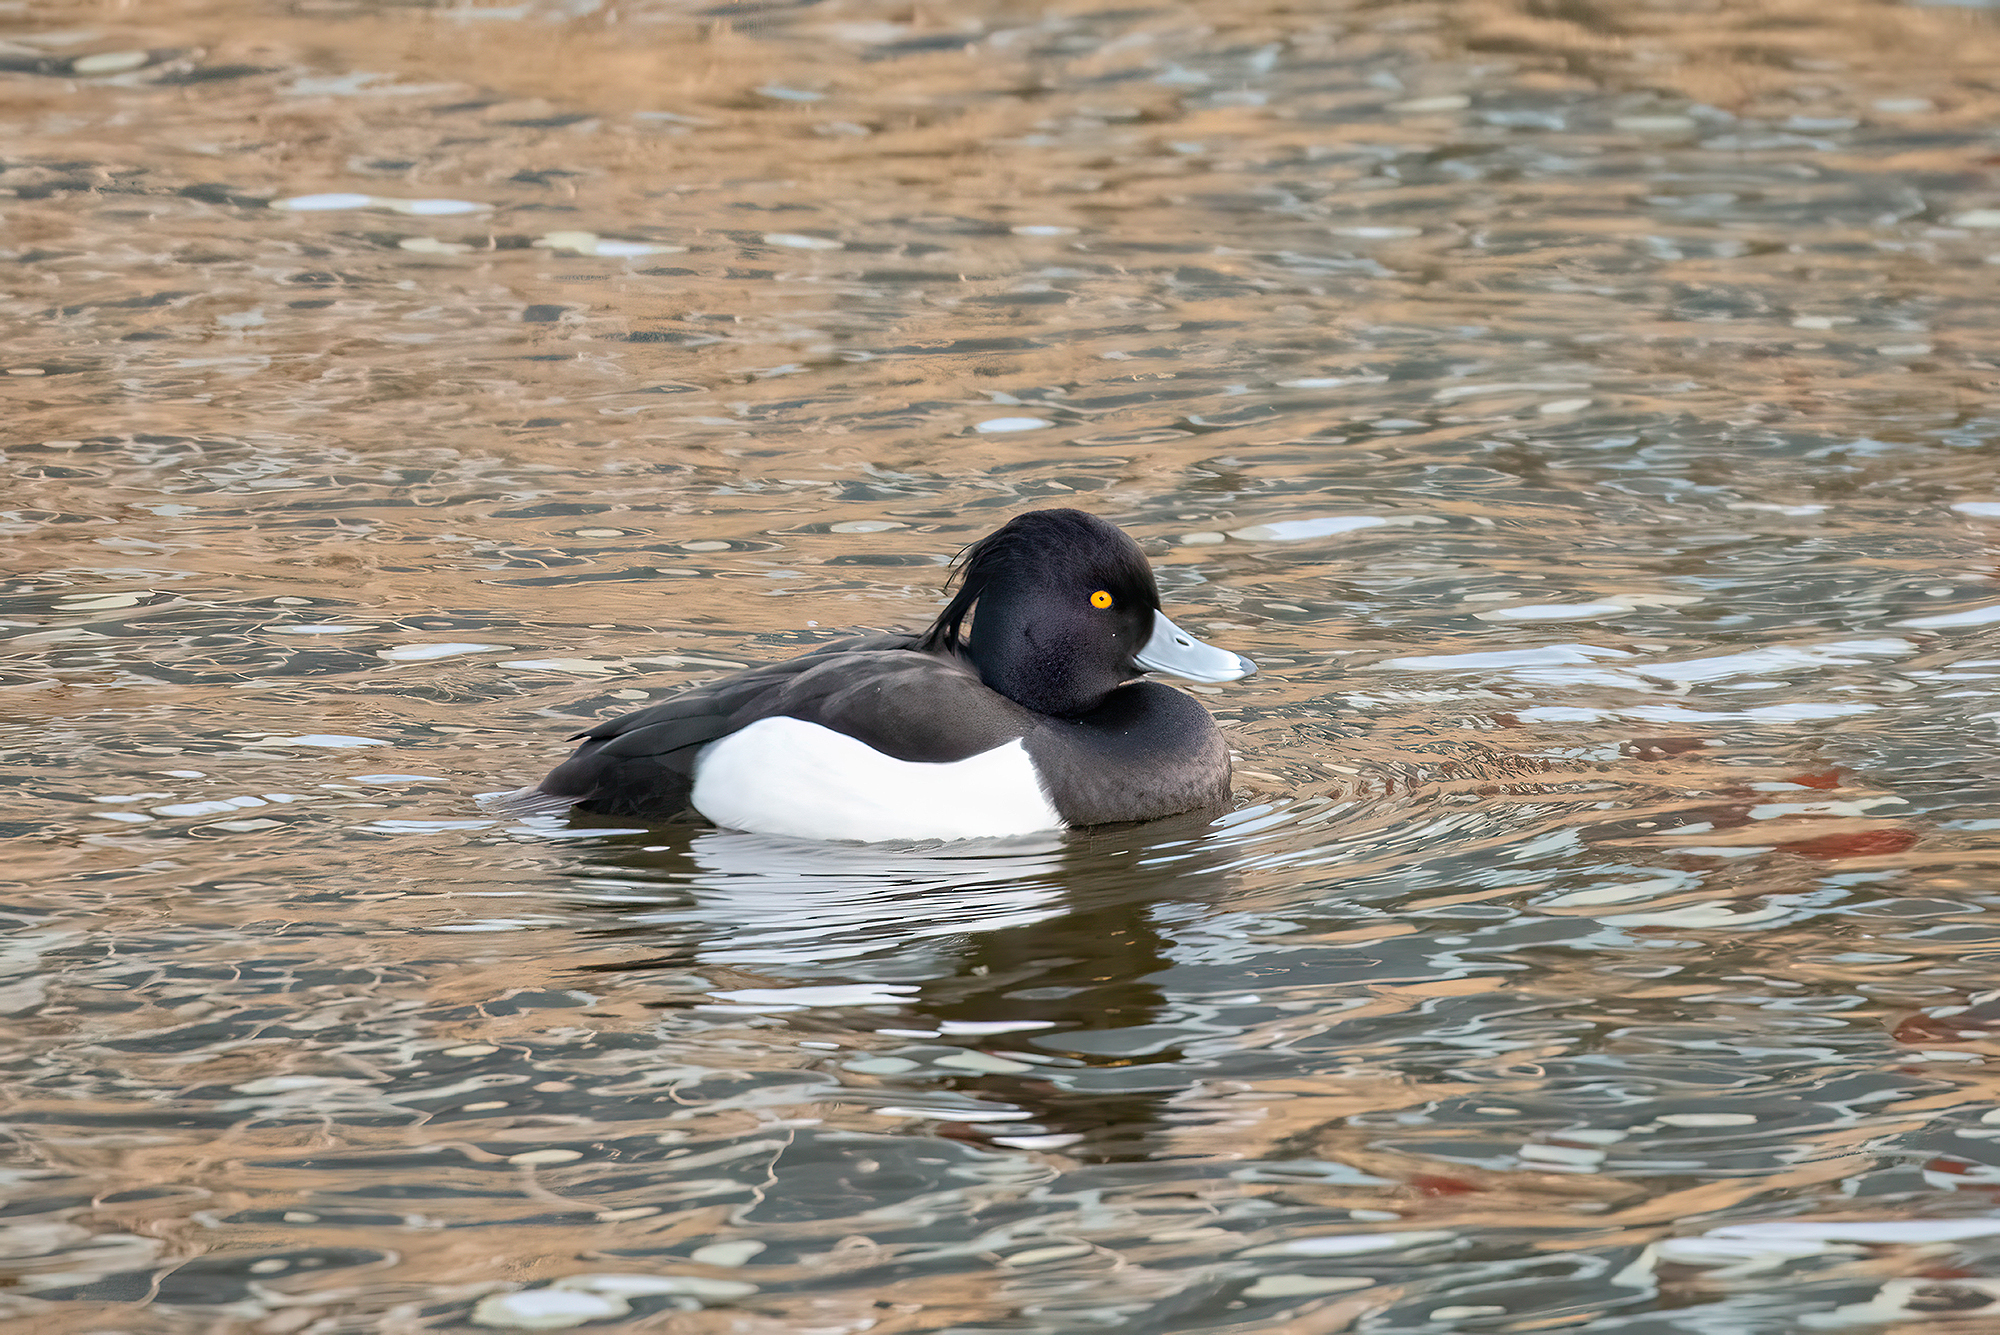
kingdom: Animalia
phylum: Chordata
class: Aves
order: Anseriformes
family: Anatidae
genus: Aythya
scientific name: Aythya fuligula
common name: Tufted duck
